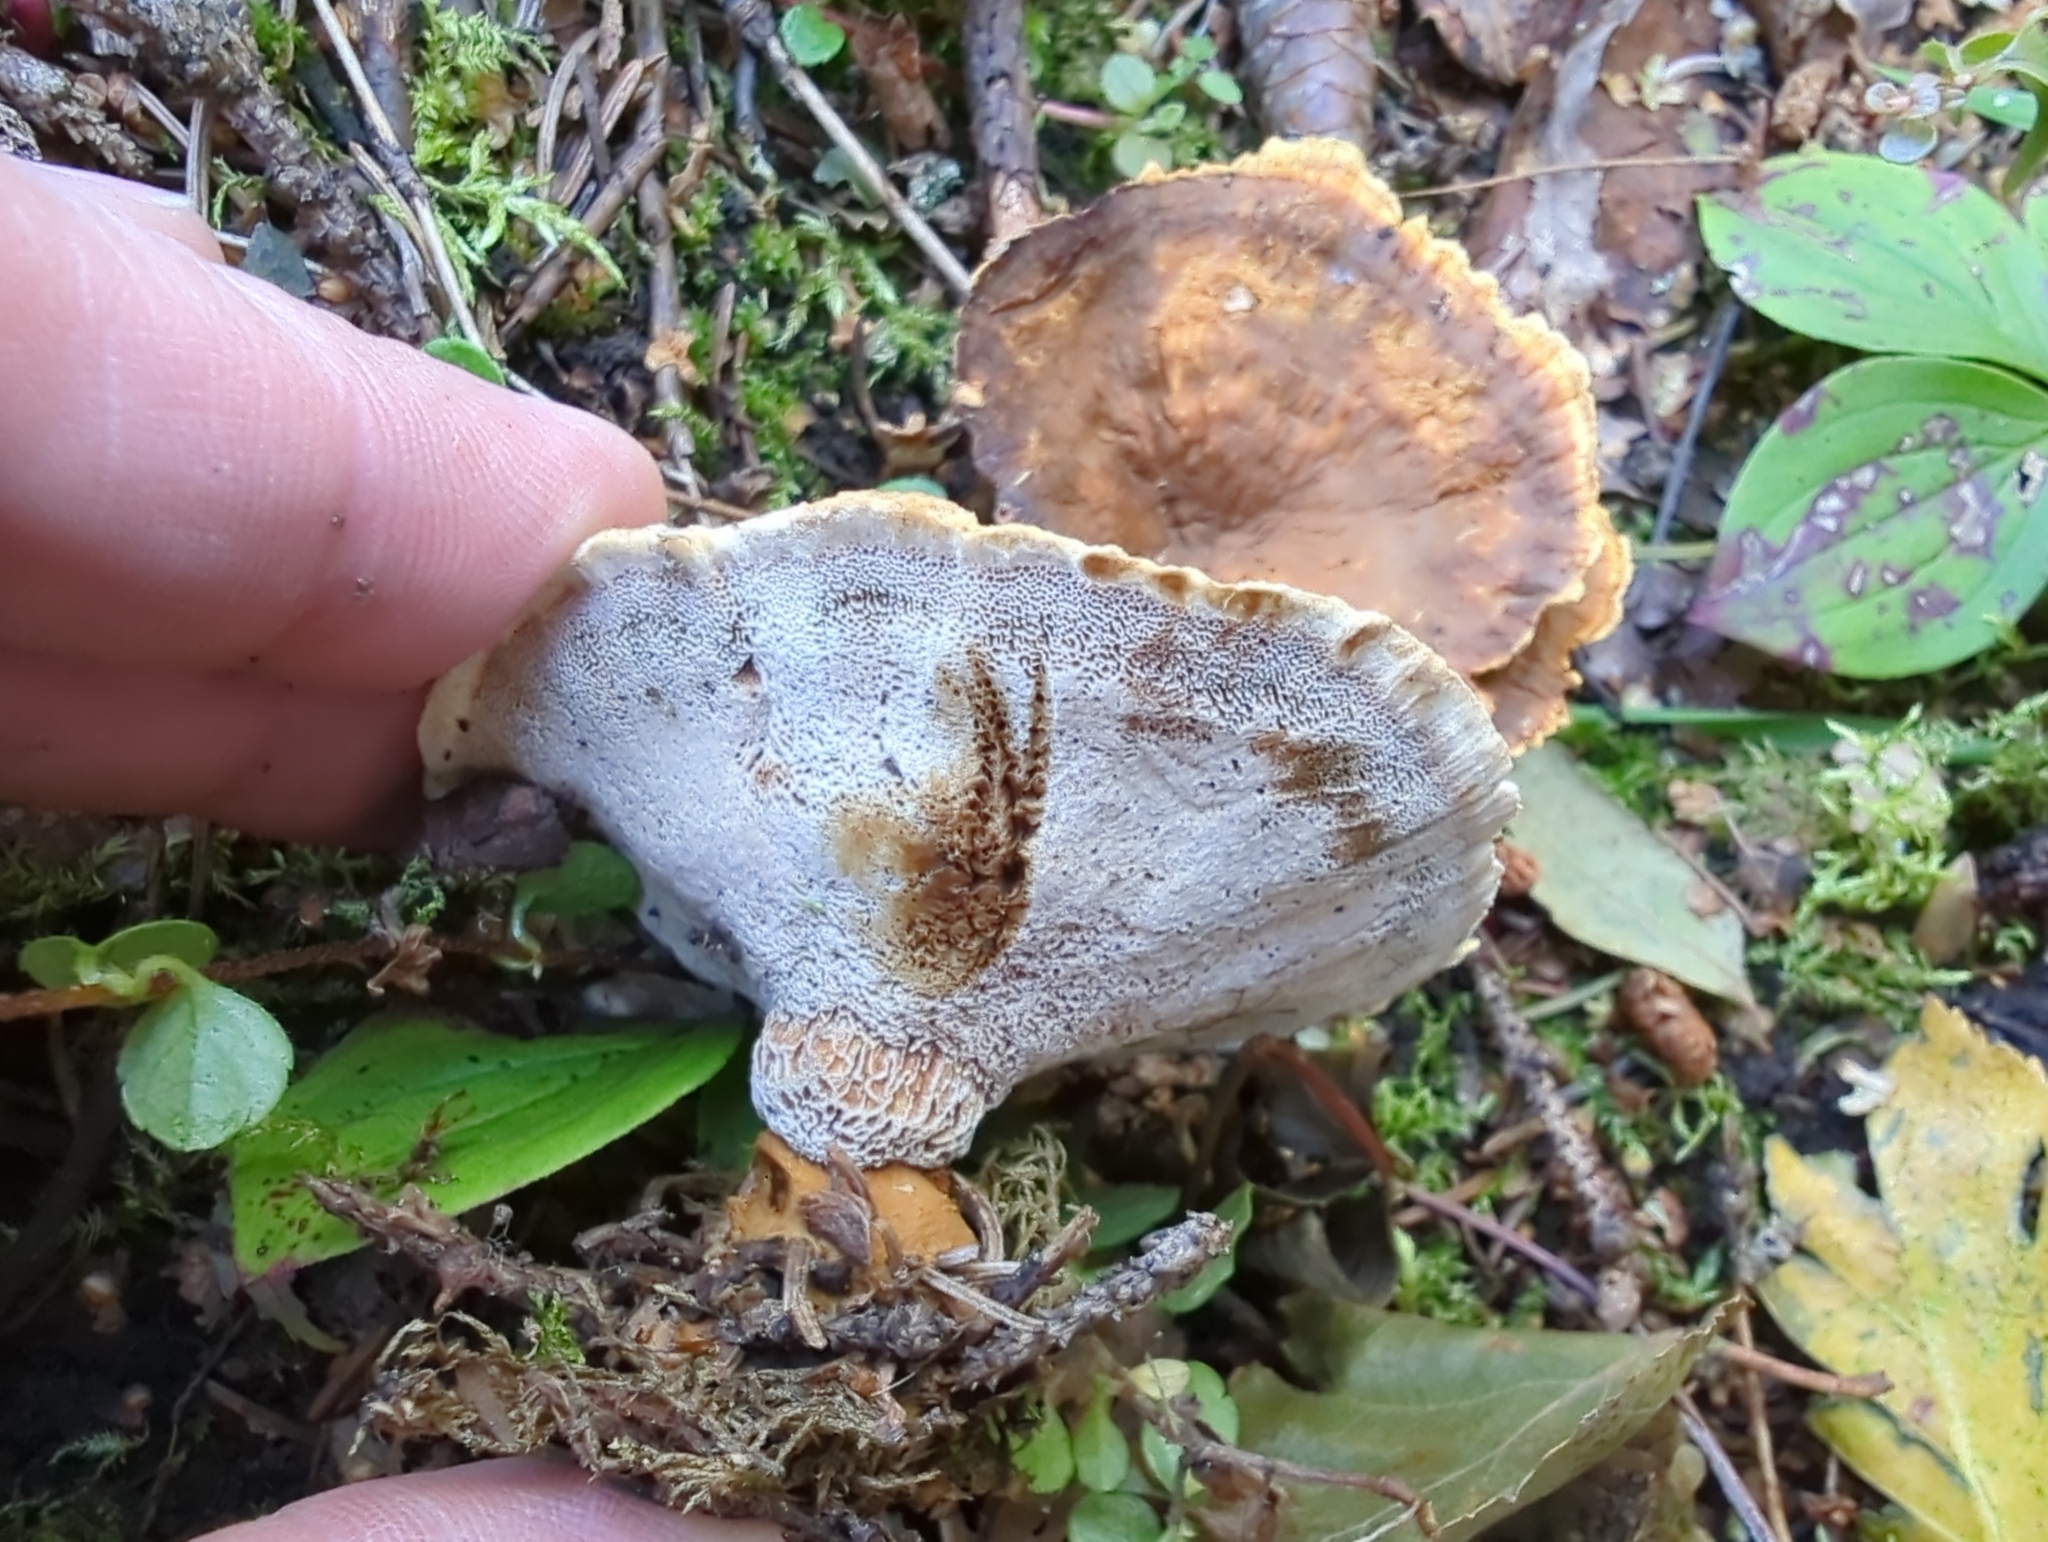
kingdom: Fungi
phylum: Basidiomycota
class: Agaricomycetes
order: Hymenochaetales
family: Hymenochaetaceae
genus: Onnia
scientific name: Onnia tomentosa
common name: Velvet rosette
